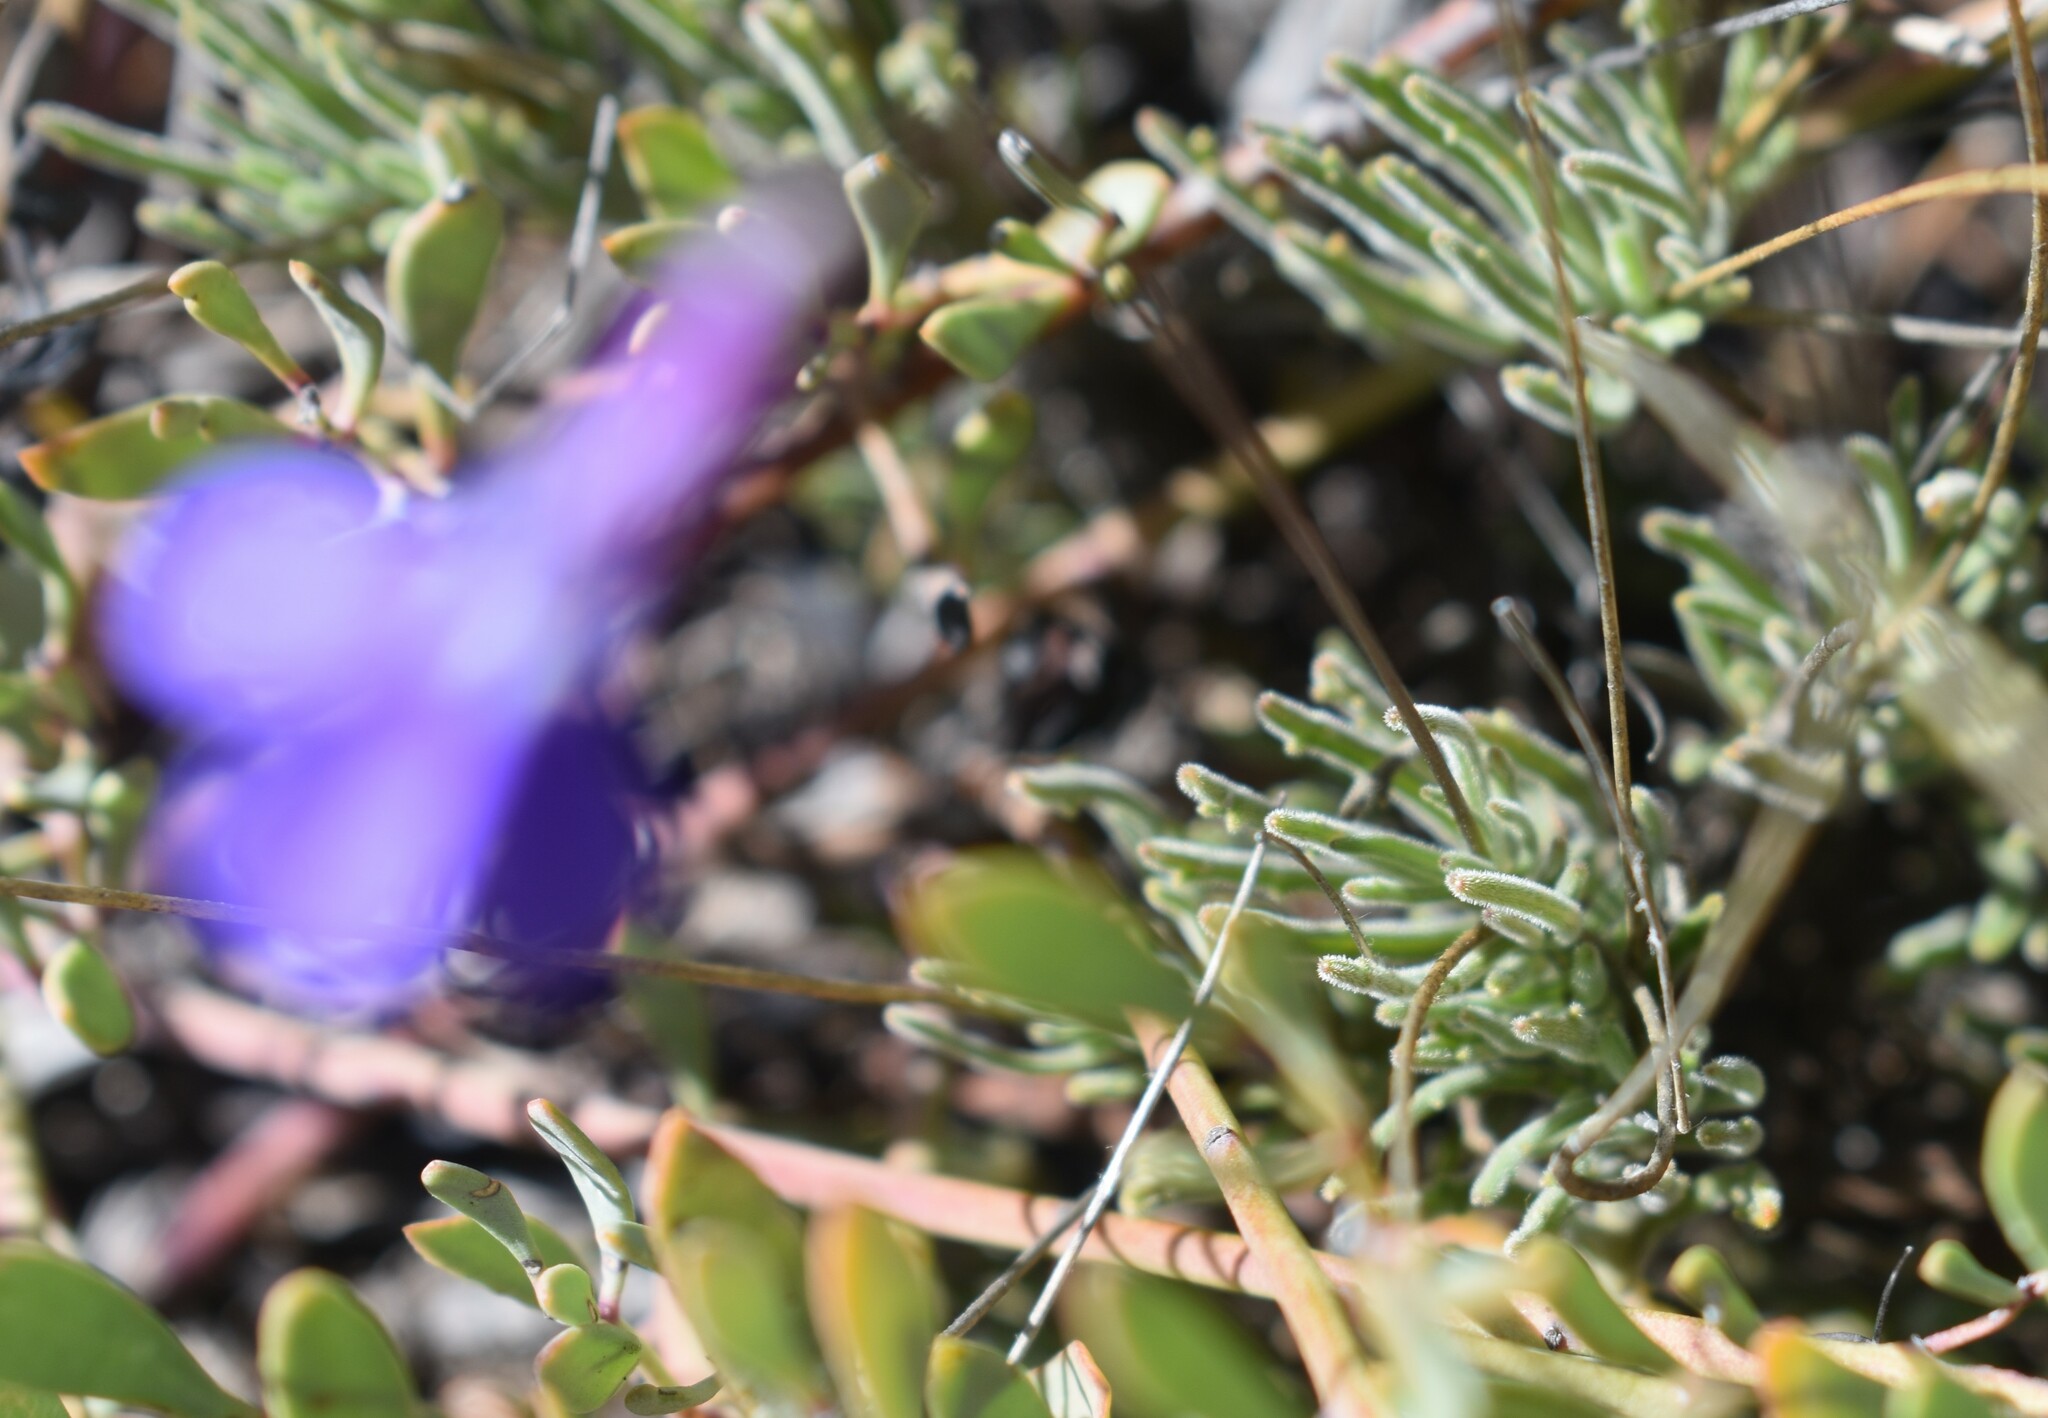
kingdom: Plantae
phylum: Tracheophyta
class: Magnoliopsida
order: Asterales
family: Campanulaceae
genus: Lobelia
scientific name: Lobelia tomentosa
